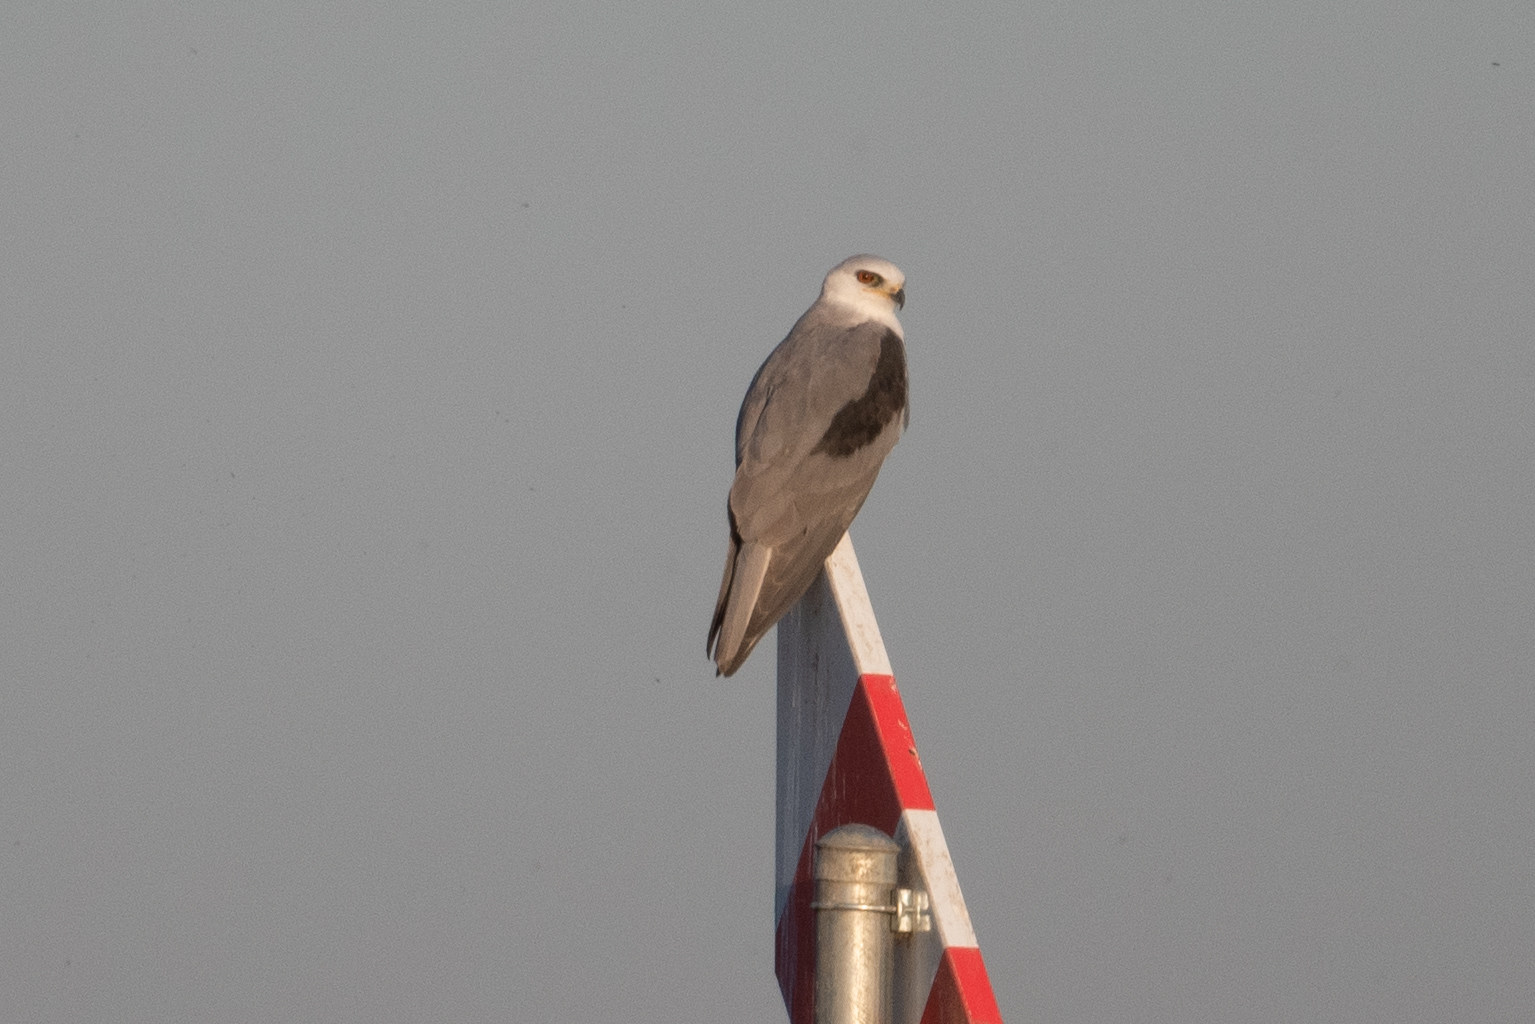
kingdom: Animalia
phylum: Chordata
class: Aves
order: Accipitriformes
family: Accipitridae
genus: Elanus
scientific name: Elanus leucurus
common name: White-tailed kite
